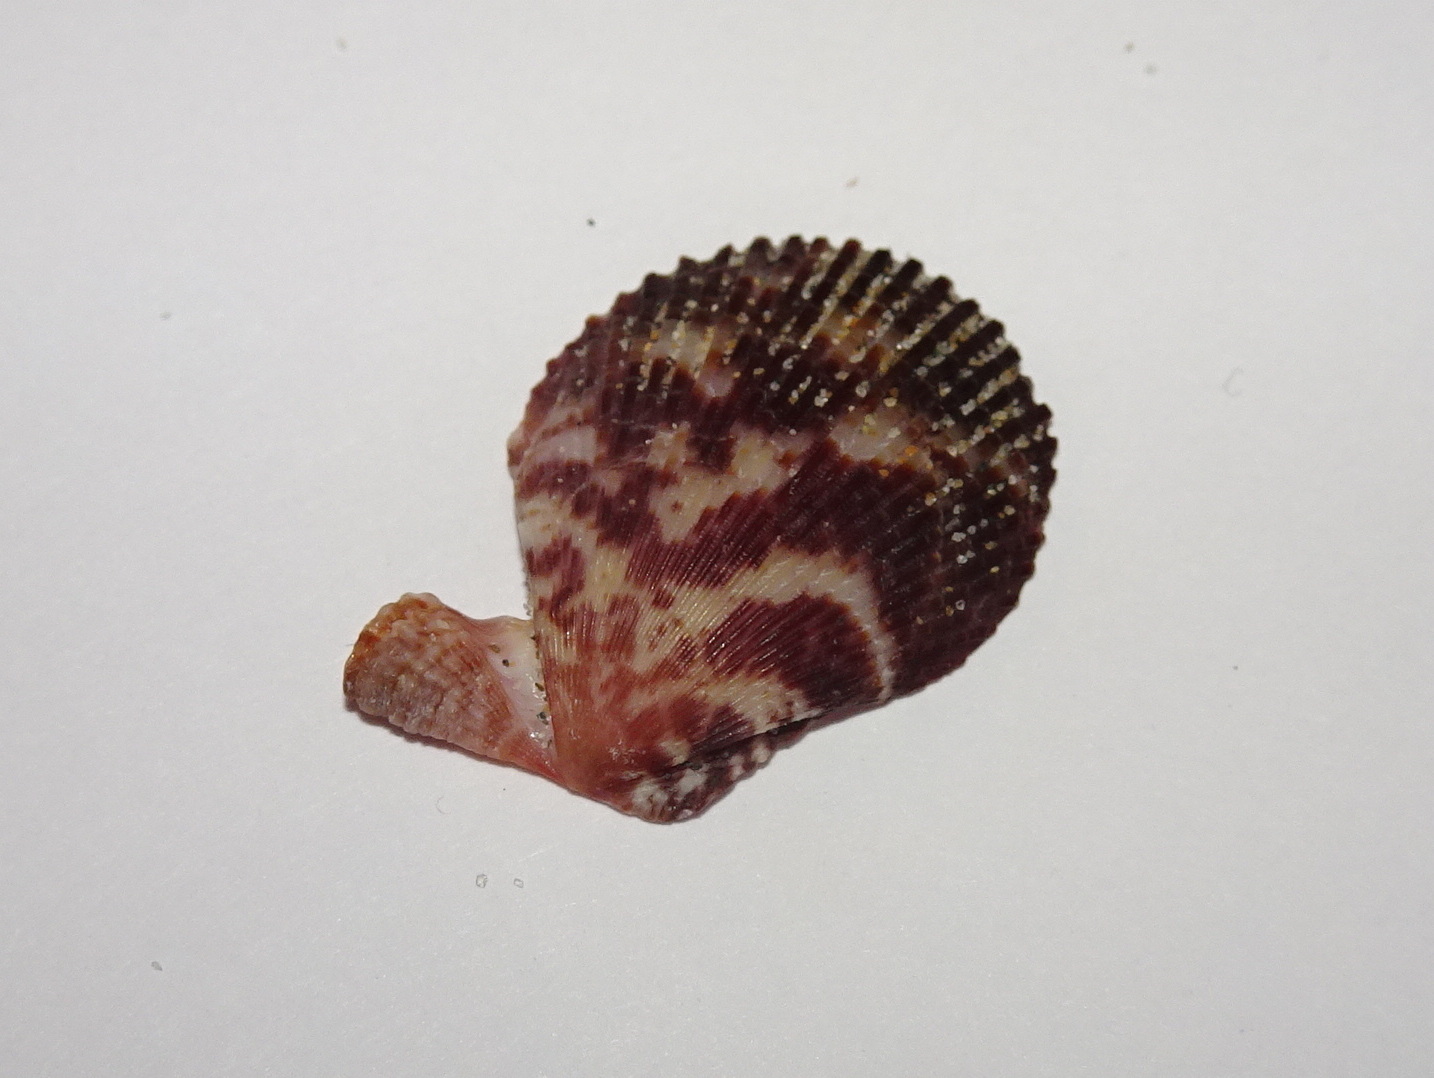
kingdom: Animalia
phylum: Mollusca
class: Bivalvia
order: Pectinida
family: Pectinidae
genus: Mimachlamys
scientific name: Mimachlamys varia
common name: Variegated scallop
